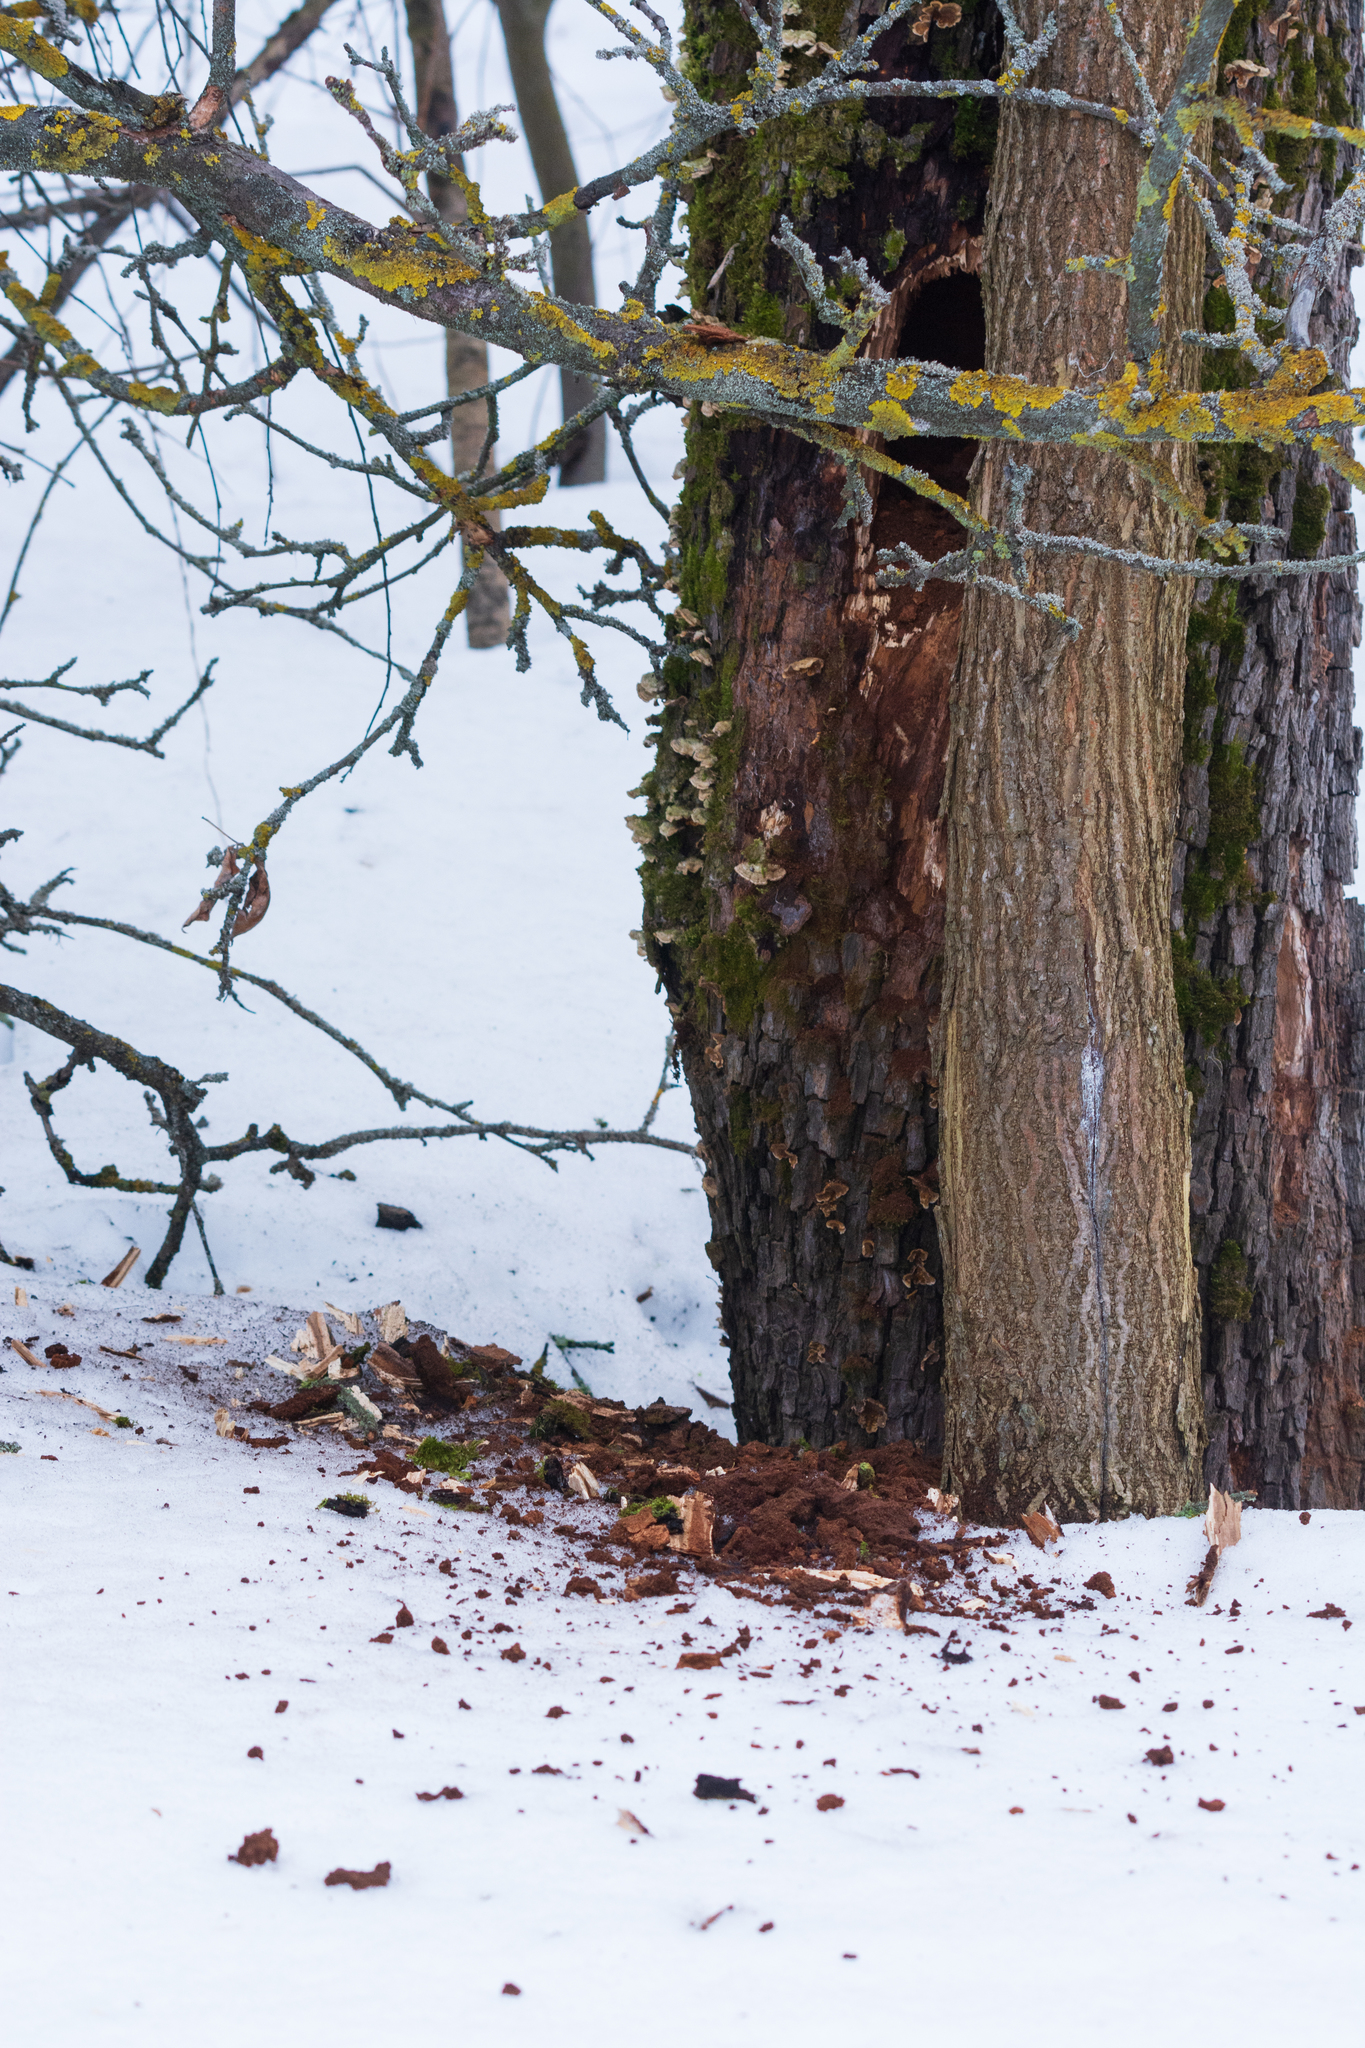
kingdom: Animalia
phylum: Chordata
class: Aves
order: Piciformes
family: Picidae
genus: Dryocopus
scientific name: Dryocopus martius
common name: Black woodpecker
